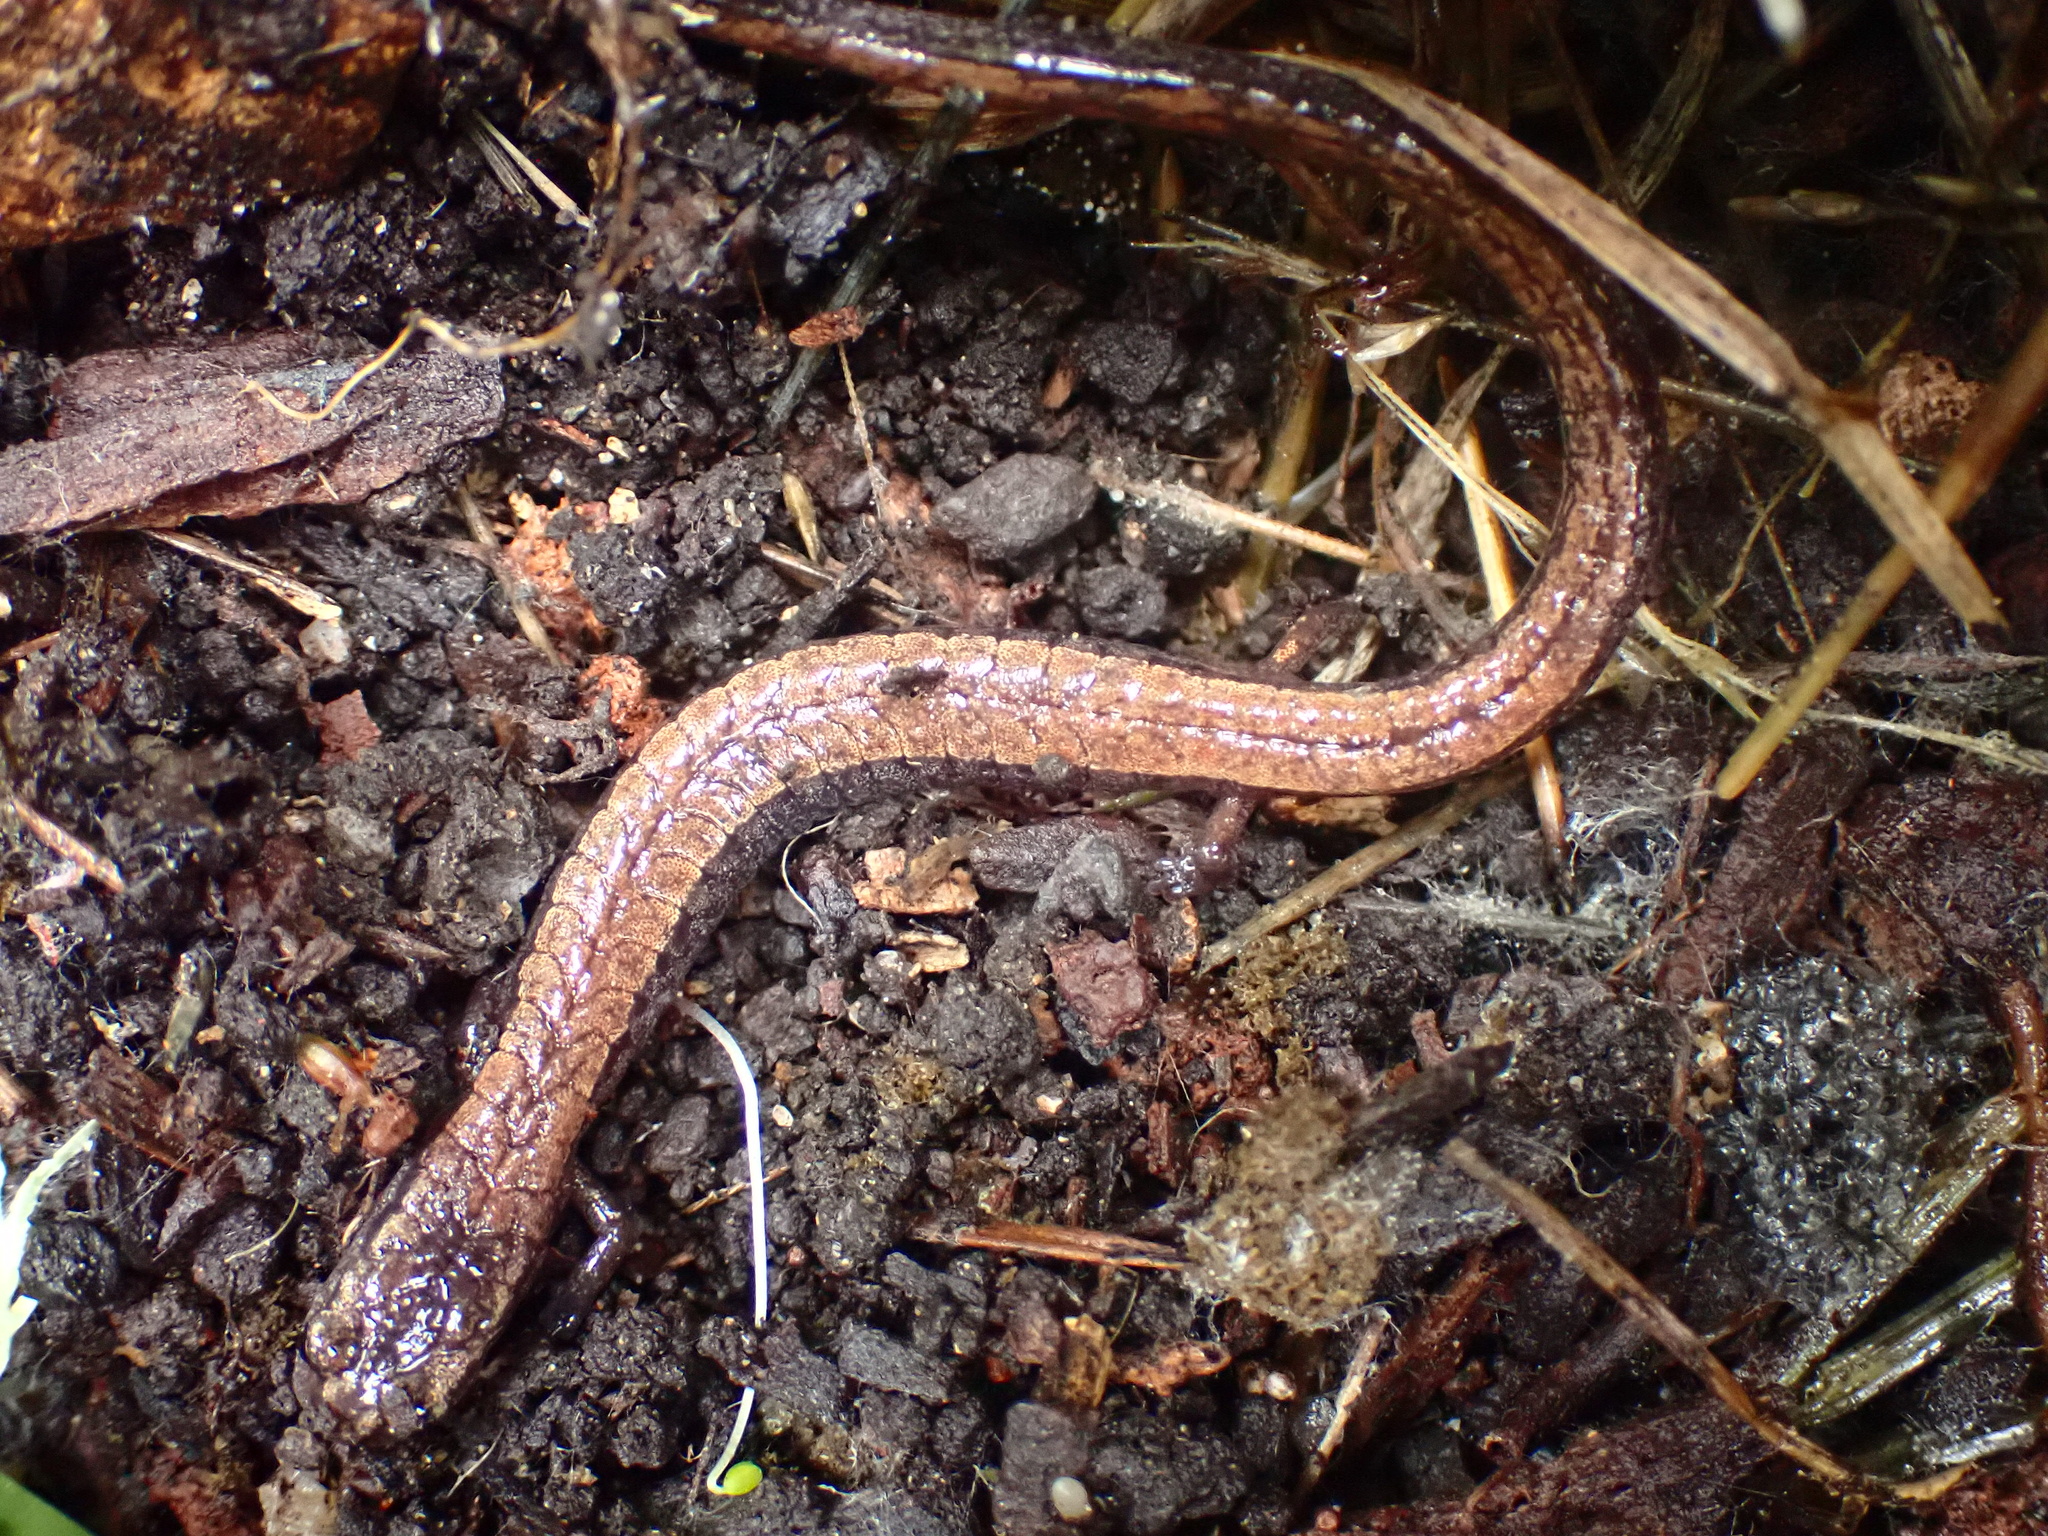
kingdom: Animalia
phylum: Chordata
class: Amphibia
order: Caudata
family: Plethodontidae
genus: Batrachoseps
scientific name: Batrachoseps attenuatus
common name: California slender salamander
